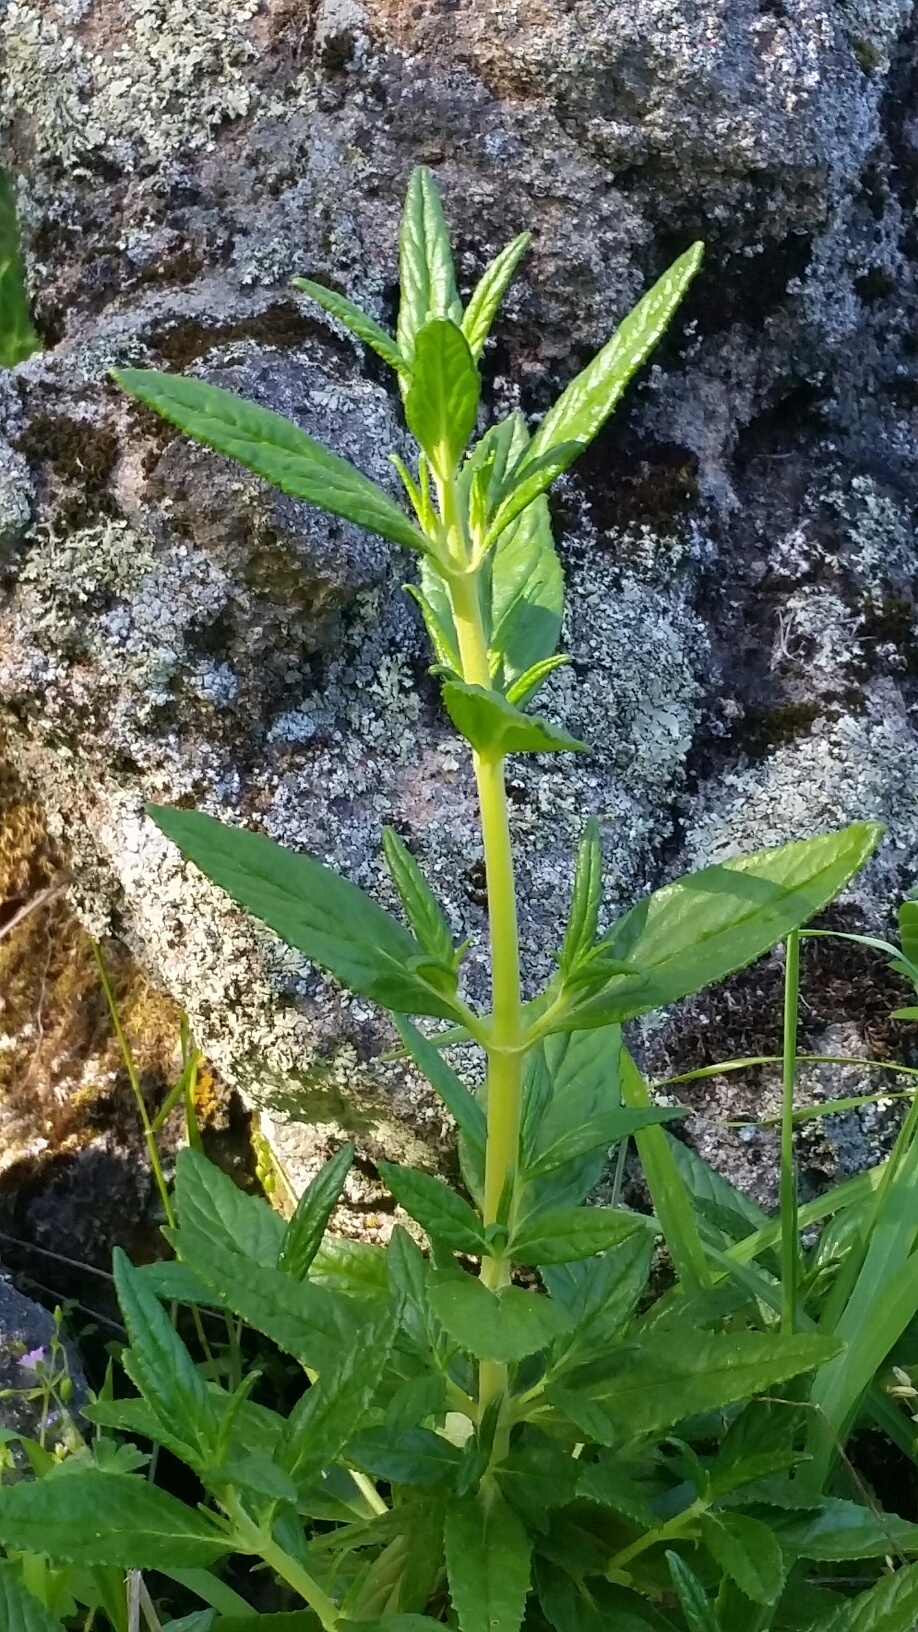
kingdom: Plantae
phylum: Tracheophyta
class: Magnoliopsida
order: Lamiales
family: Phrymaceae
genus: Diplacus
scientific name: Diplacus aurantiacus
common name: Bush monkey-flower
